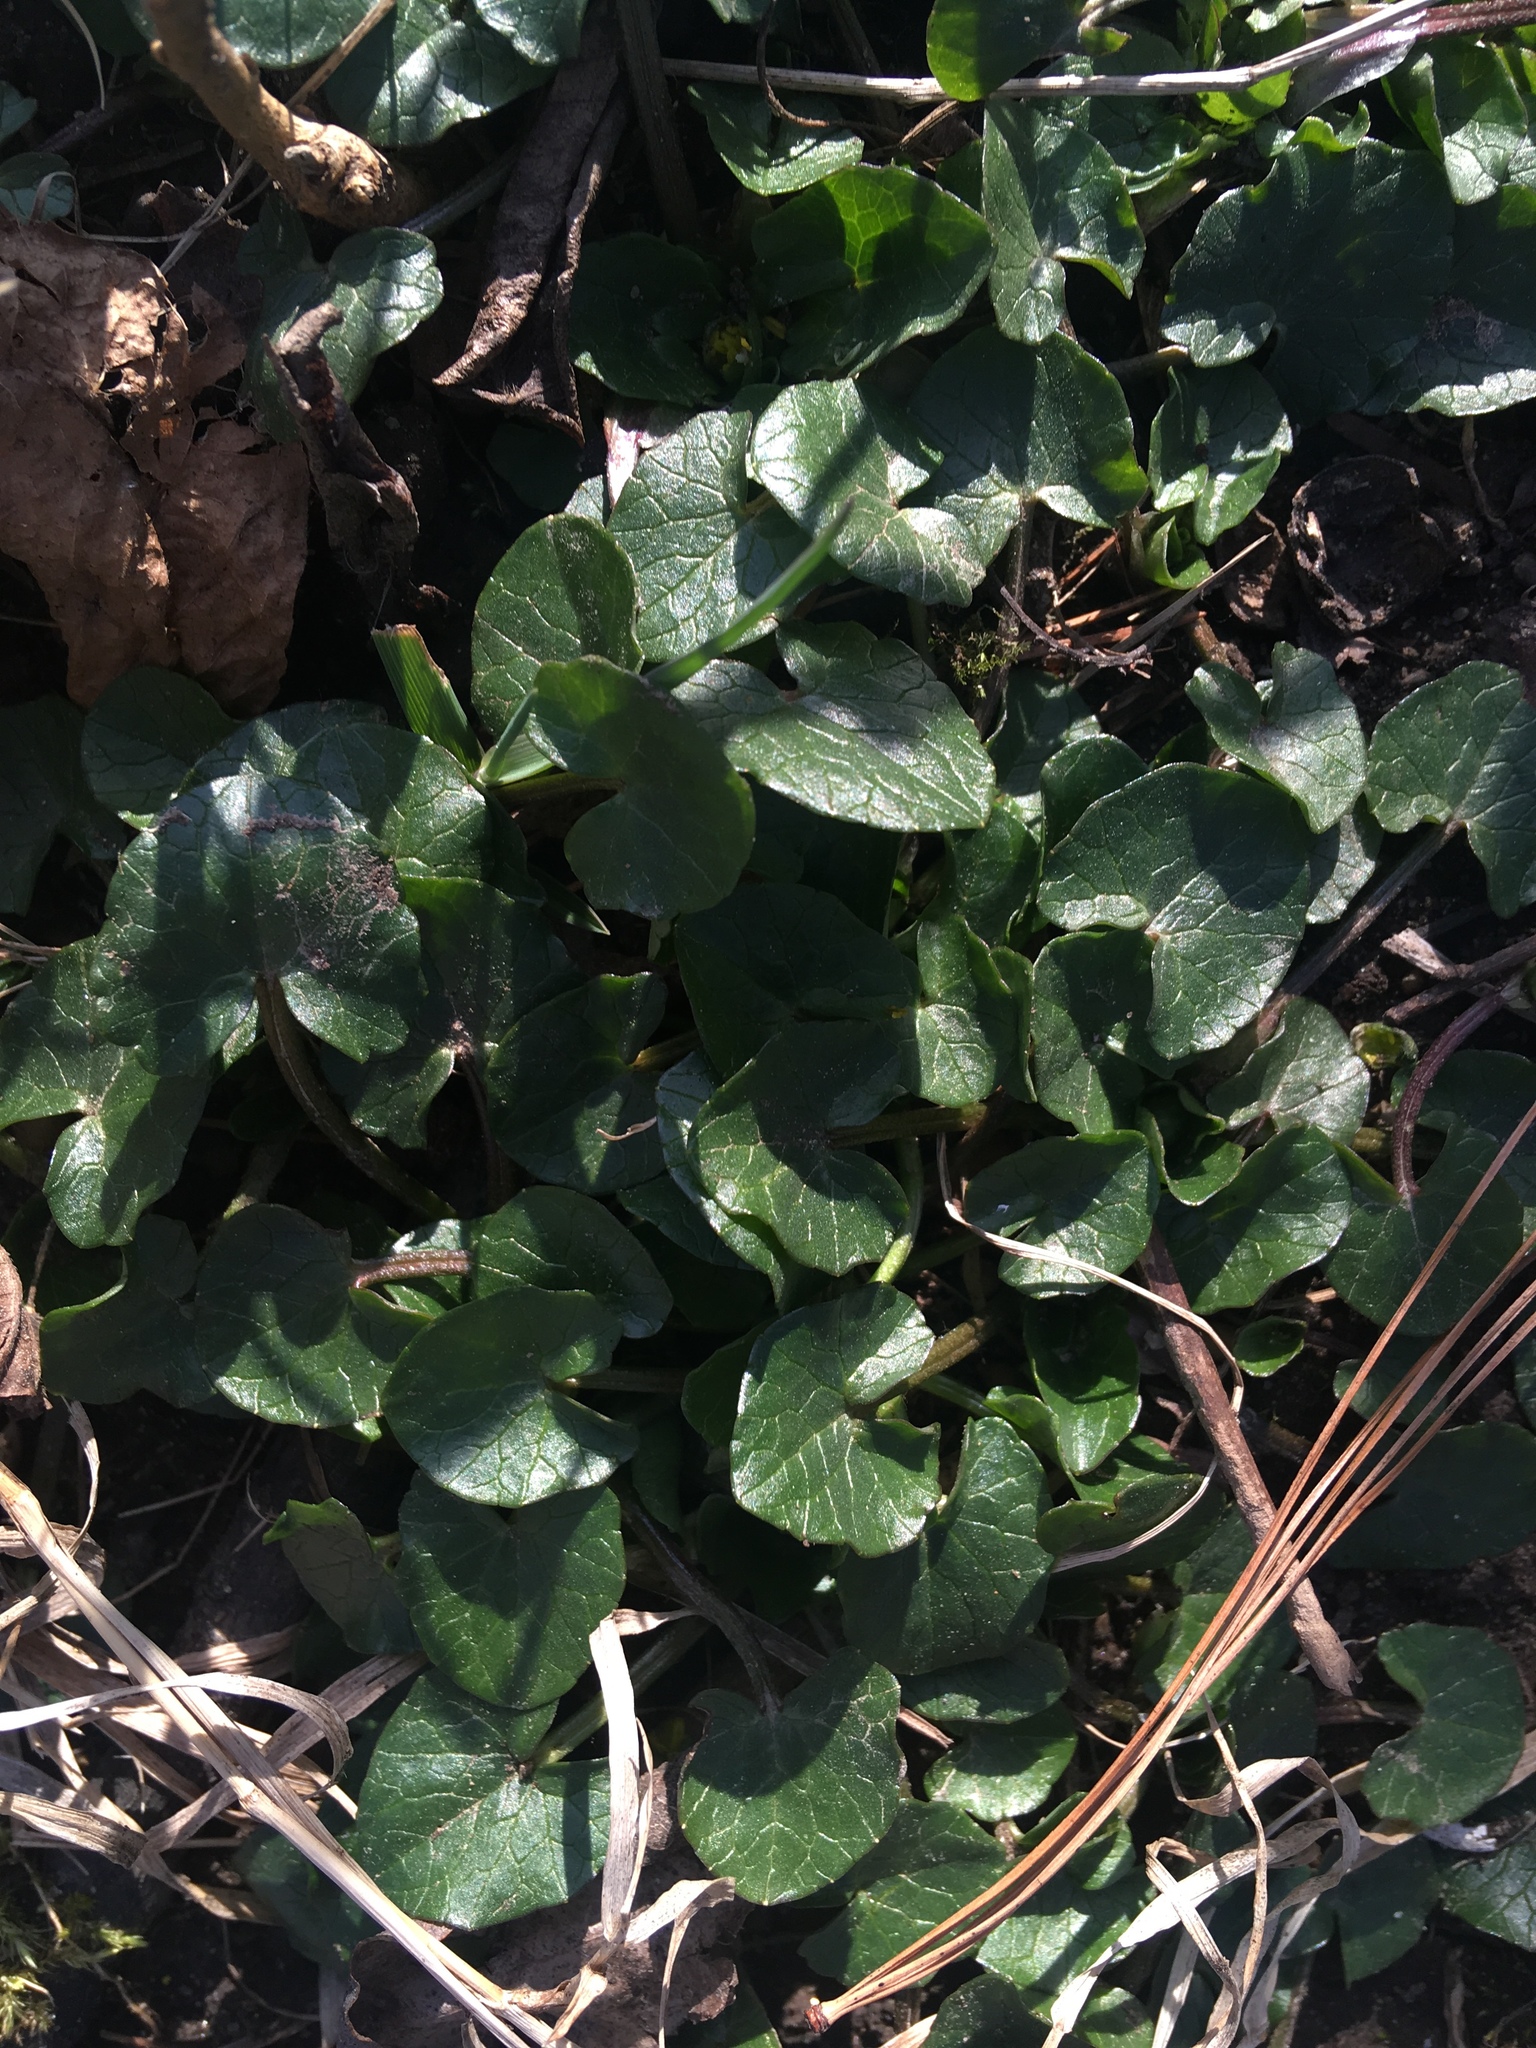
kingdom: Plantae
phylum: Tracheophyta
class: Magnoliopsida
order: Ranunculales
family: Ranunculaceae
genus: Ficaria
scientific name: Ficaria verna
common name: Lesser celandine
